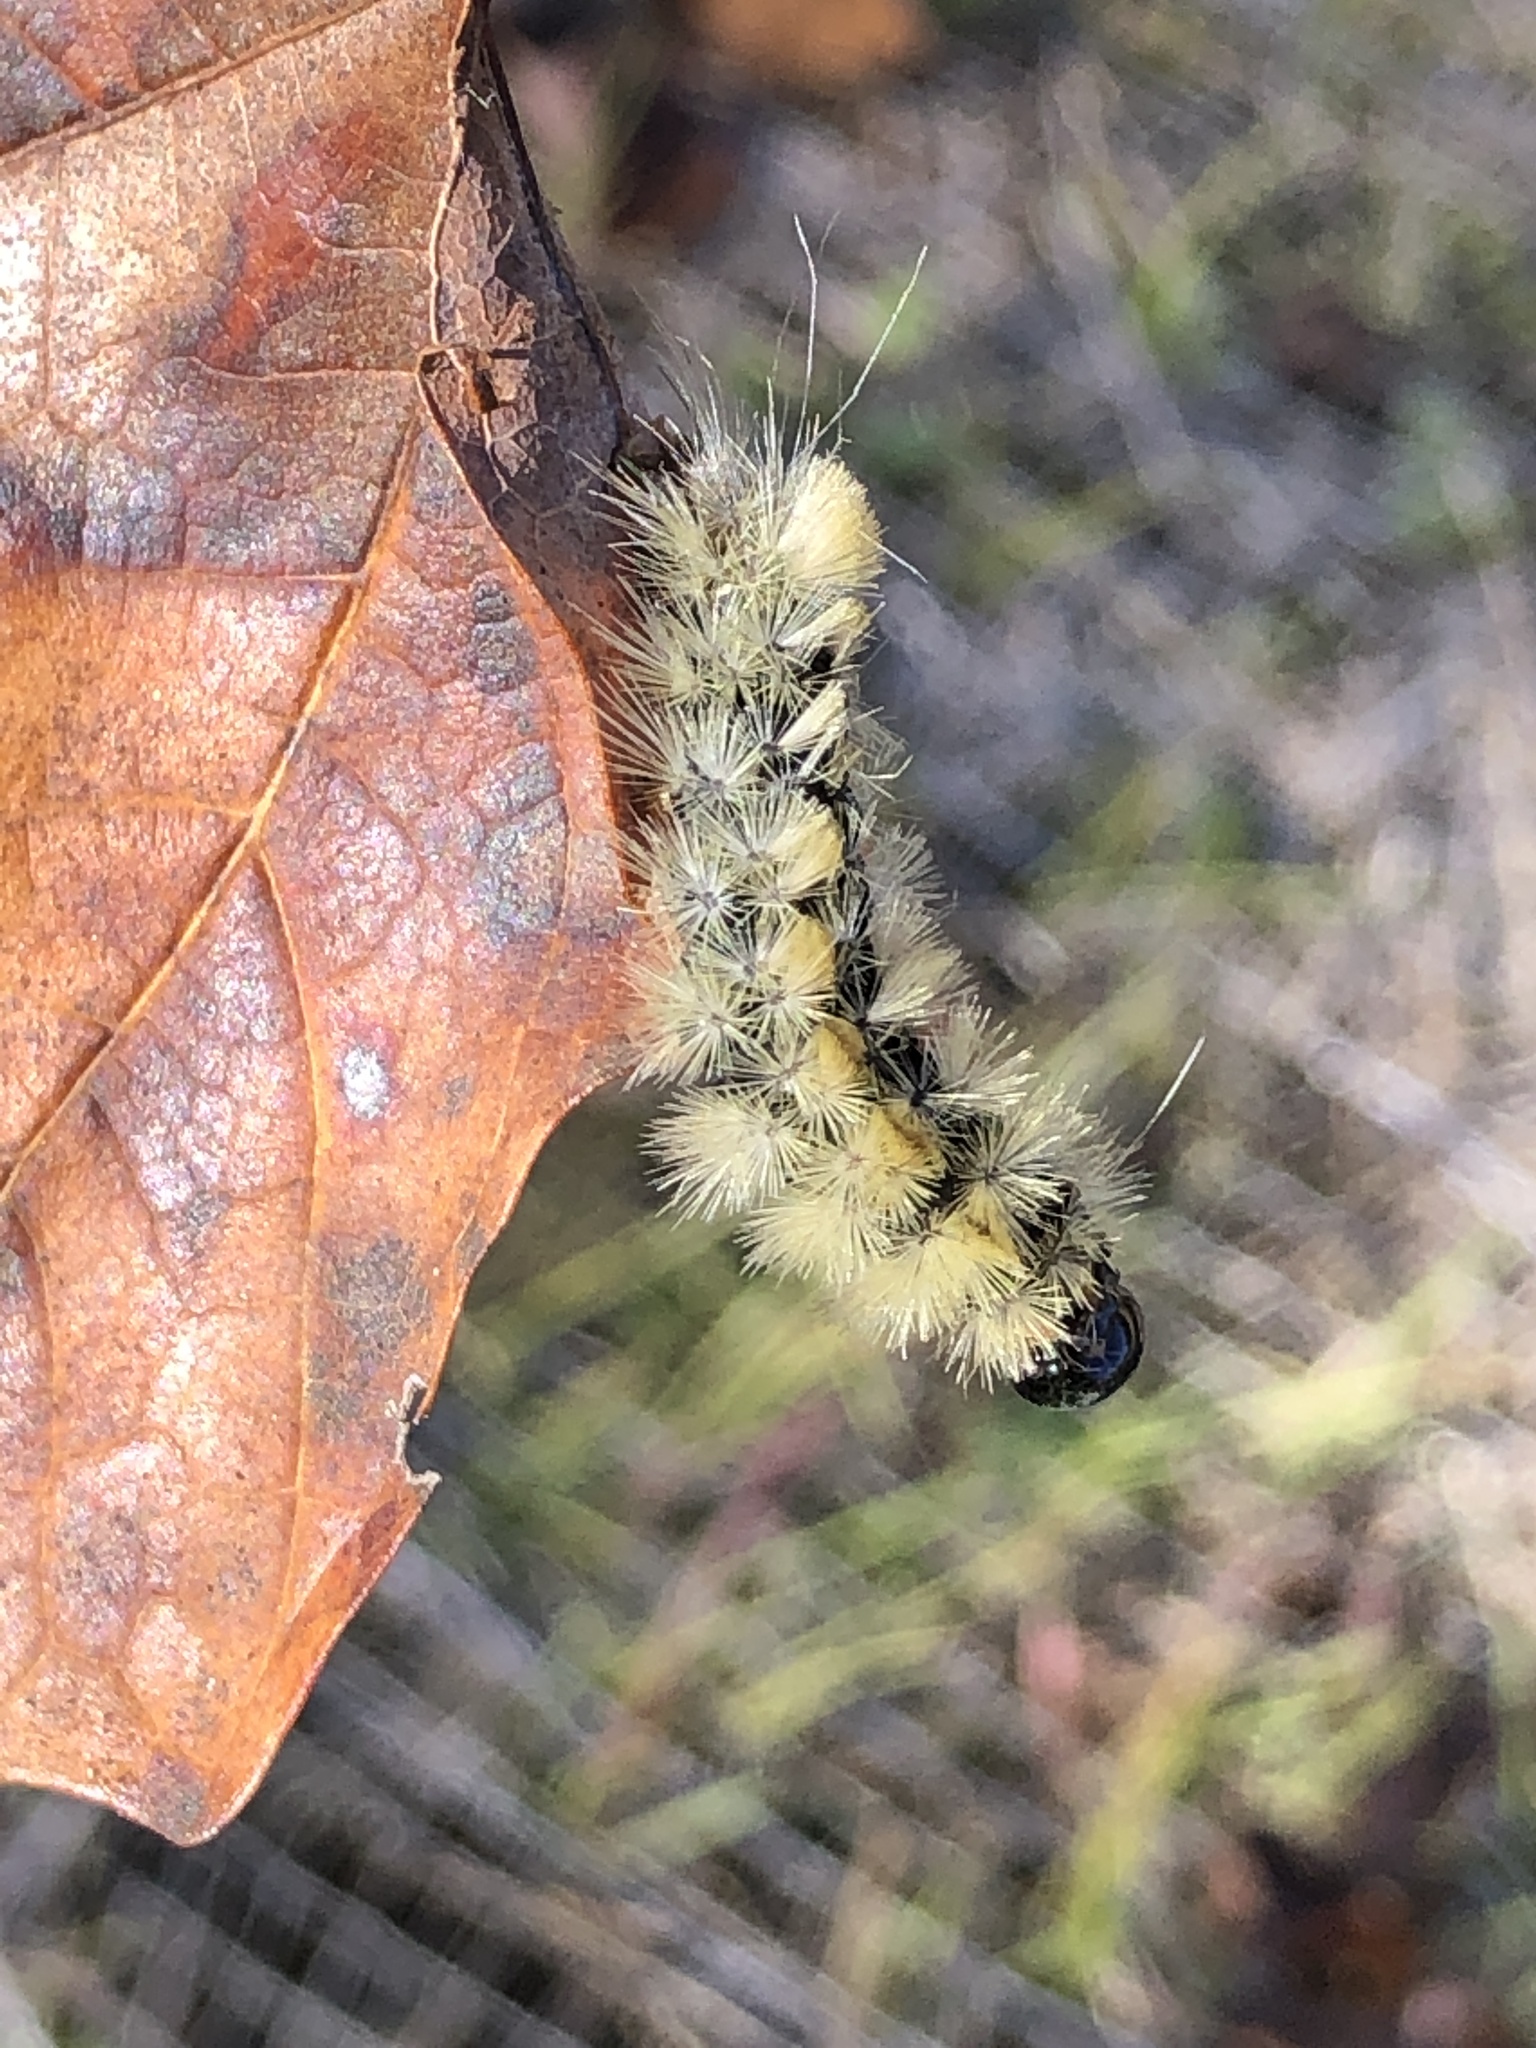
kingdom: Animalia
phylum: Arthropoda
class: Insecta
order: Lepidoptera
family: Erebidae
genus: Halysidota
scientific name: Halysidota tessellaris
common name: Banded tussock moth
